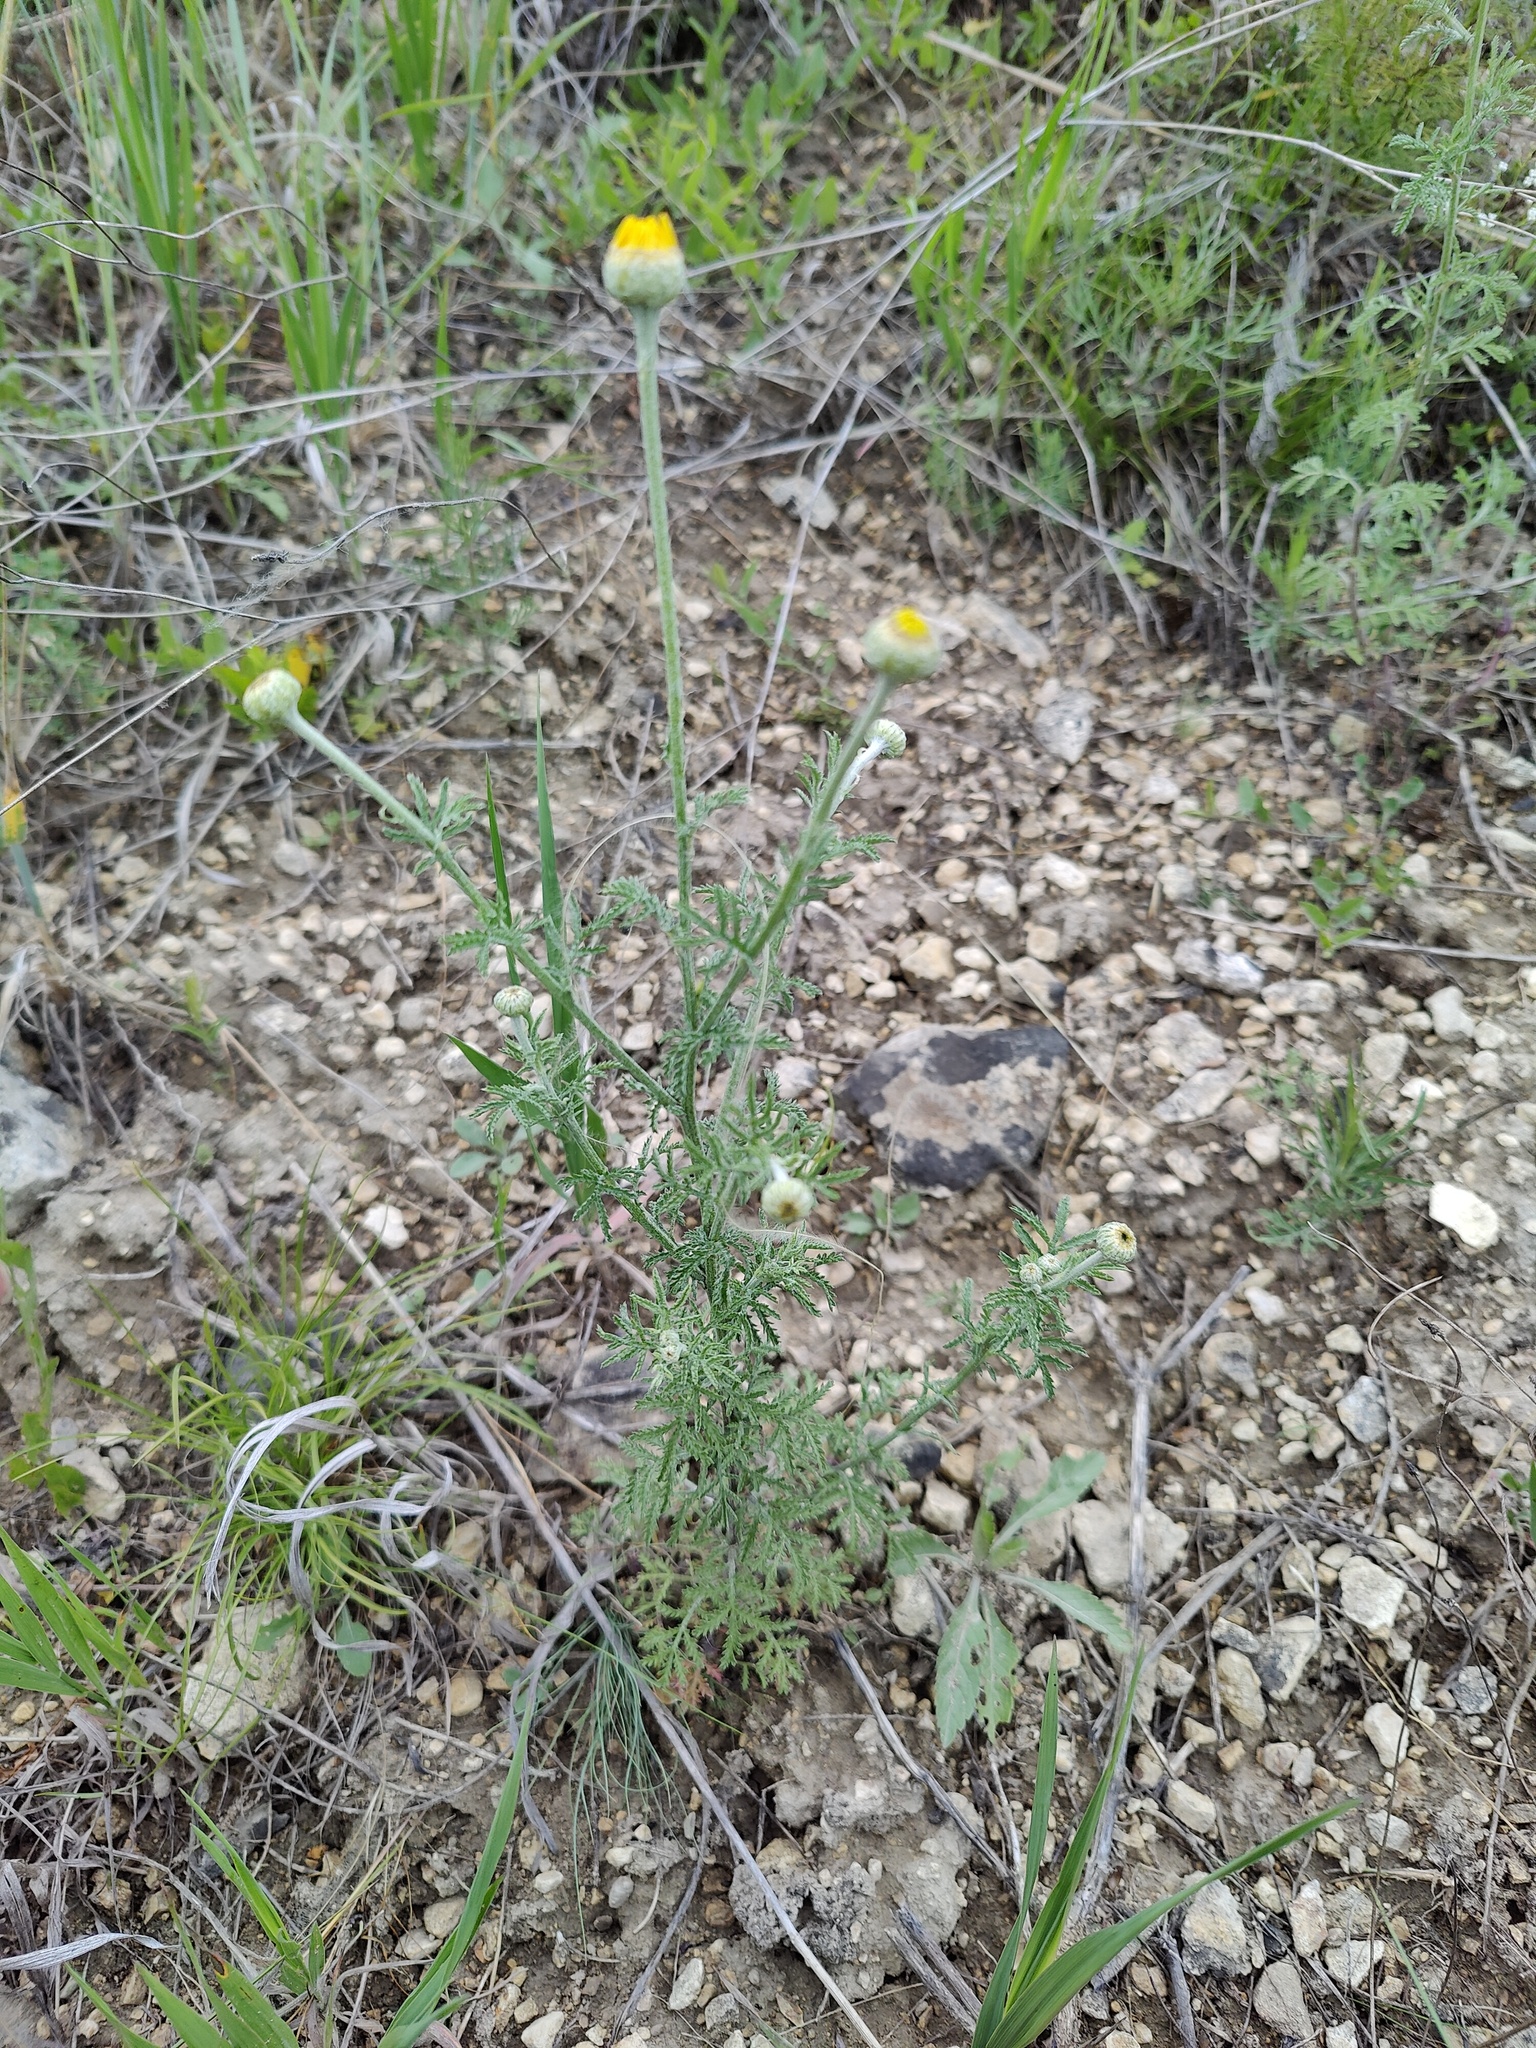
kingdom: Plantae
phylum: Tracheophyta
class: Magnoliopsida
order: Asterales
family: Asteraceae
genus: Cota
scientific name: Cota tinctoria
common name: Golden chamomile
